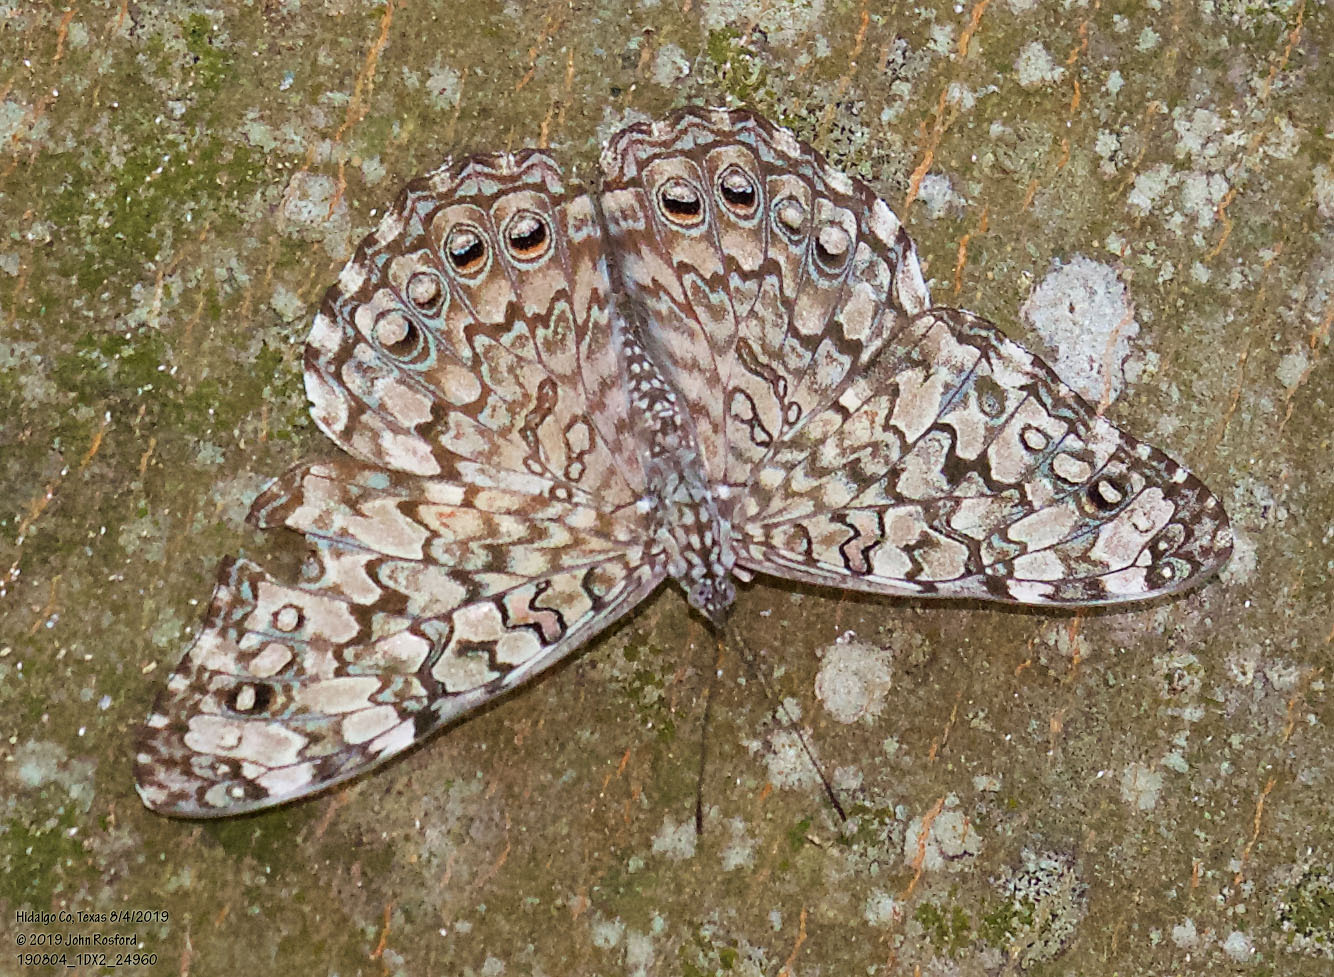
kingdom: Animalia
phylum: Arthropoda
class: Insecta
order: Lepidoptera
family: Nymphalidae
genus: Hamadryas
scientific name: Hamadryas februa
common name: Gray cracker
